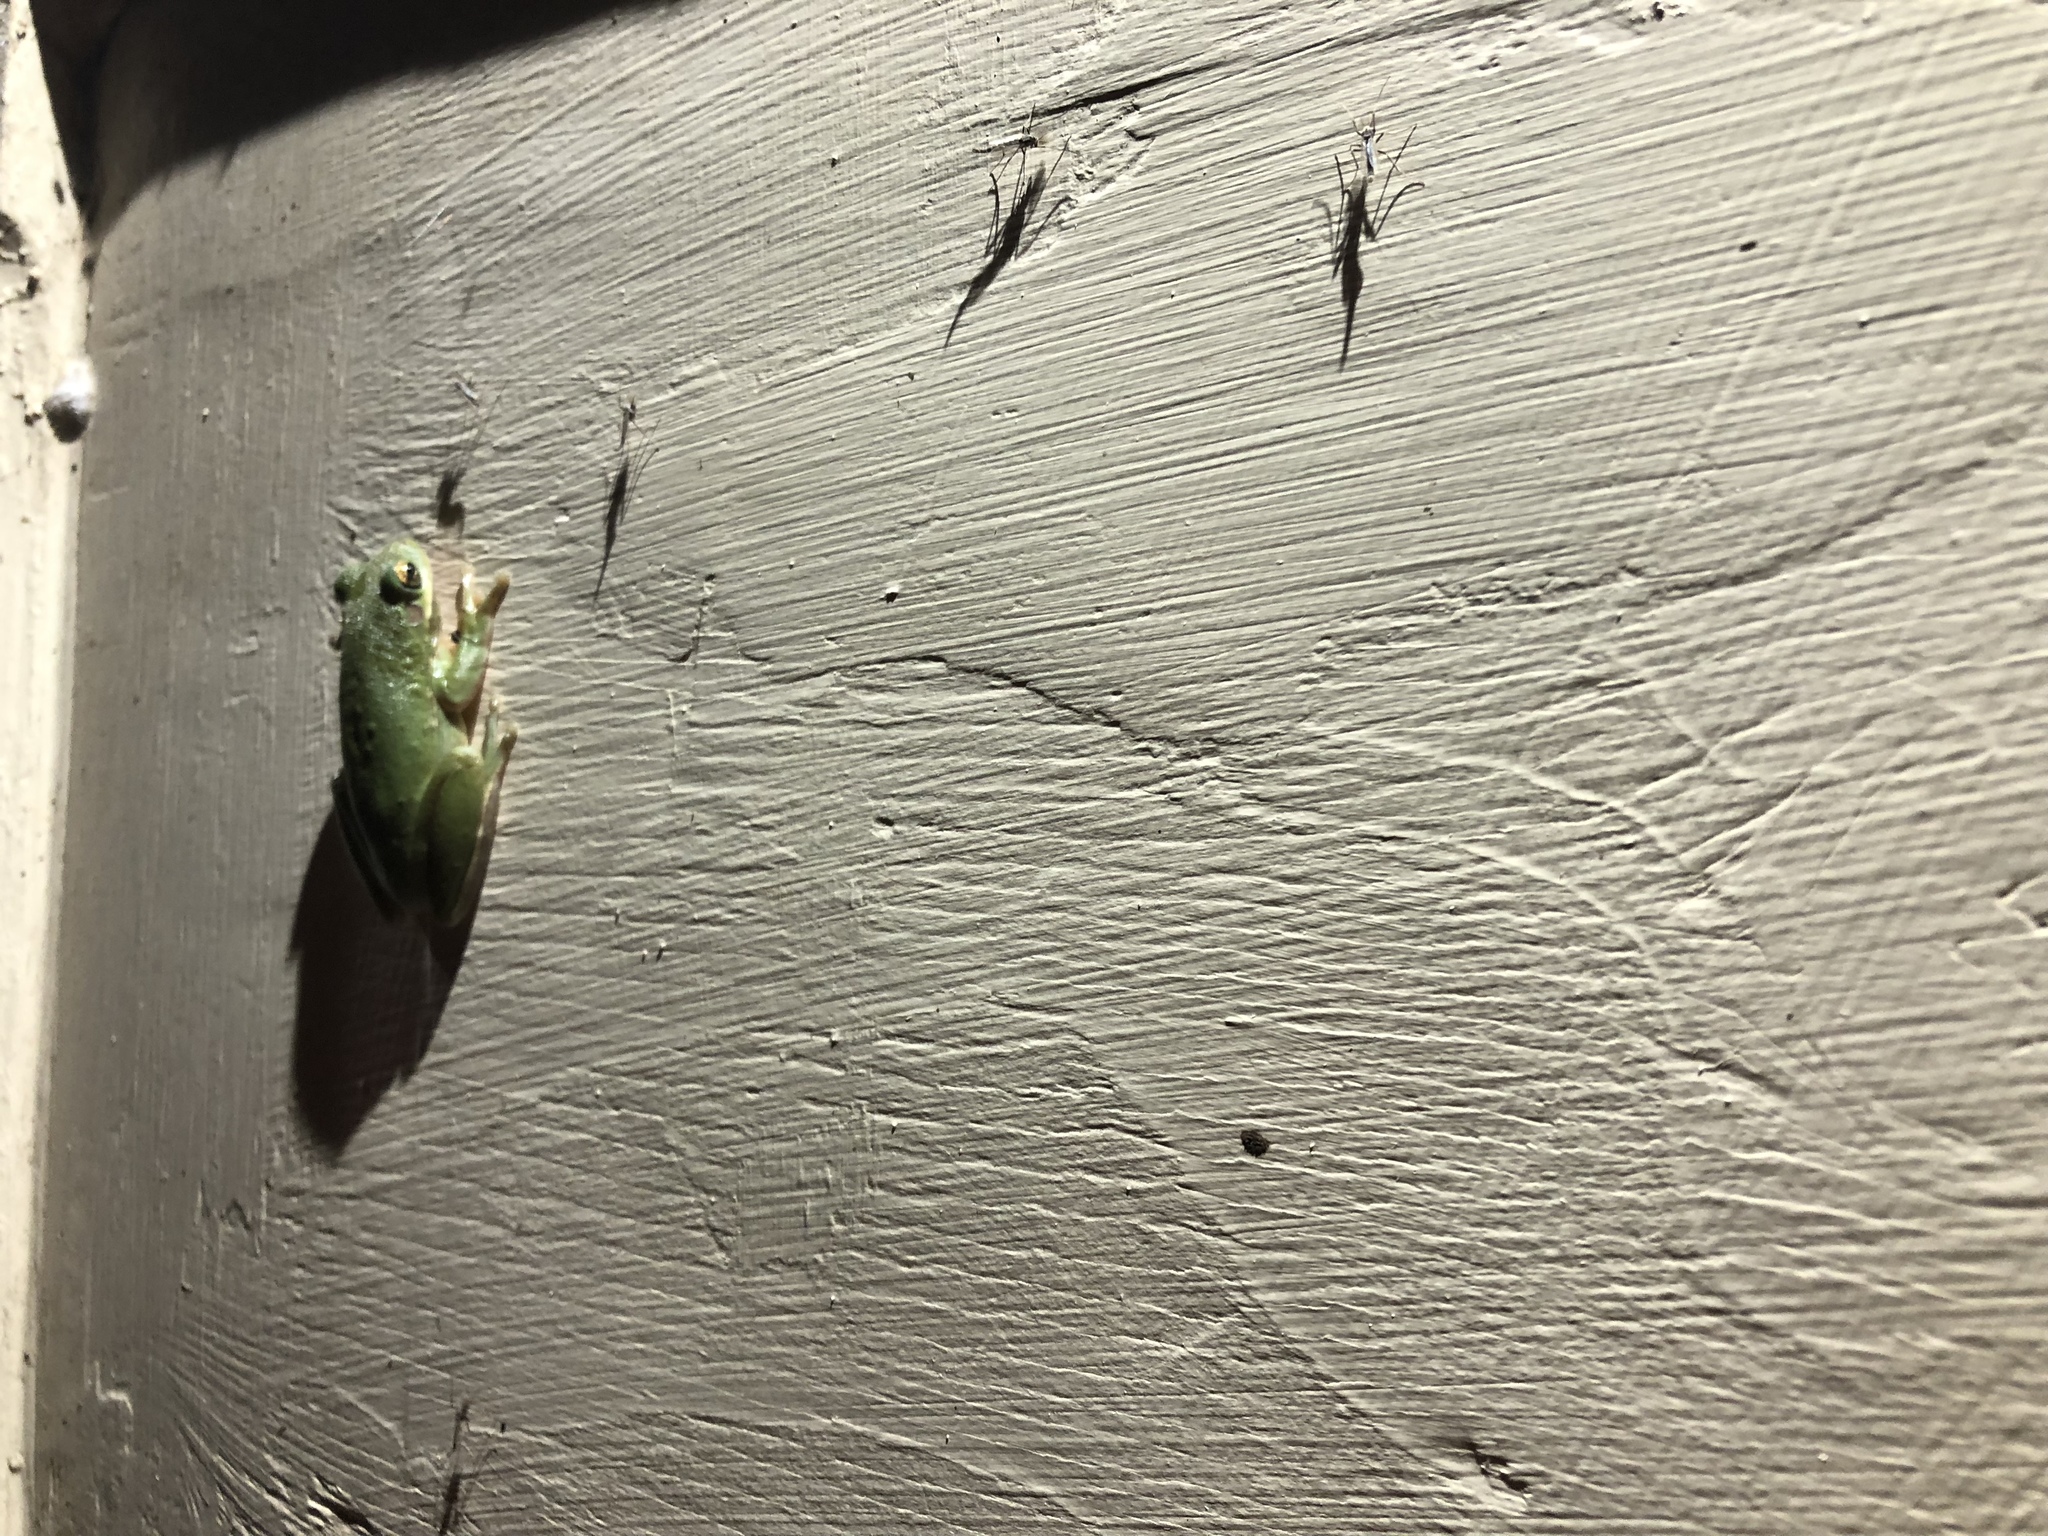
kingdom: Animalia
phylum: Chordata
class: Amphibia
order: Anura
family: Hylidae
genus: Dryophytes
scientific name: Dryophytes cinereus
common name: Green treefrog
